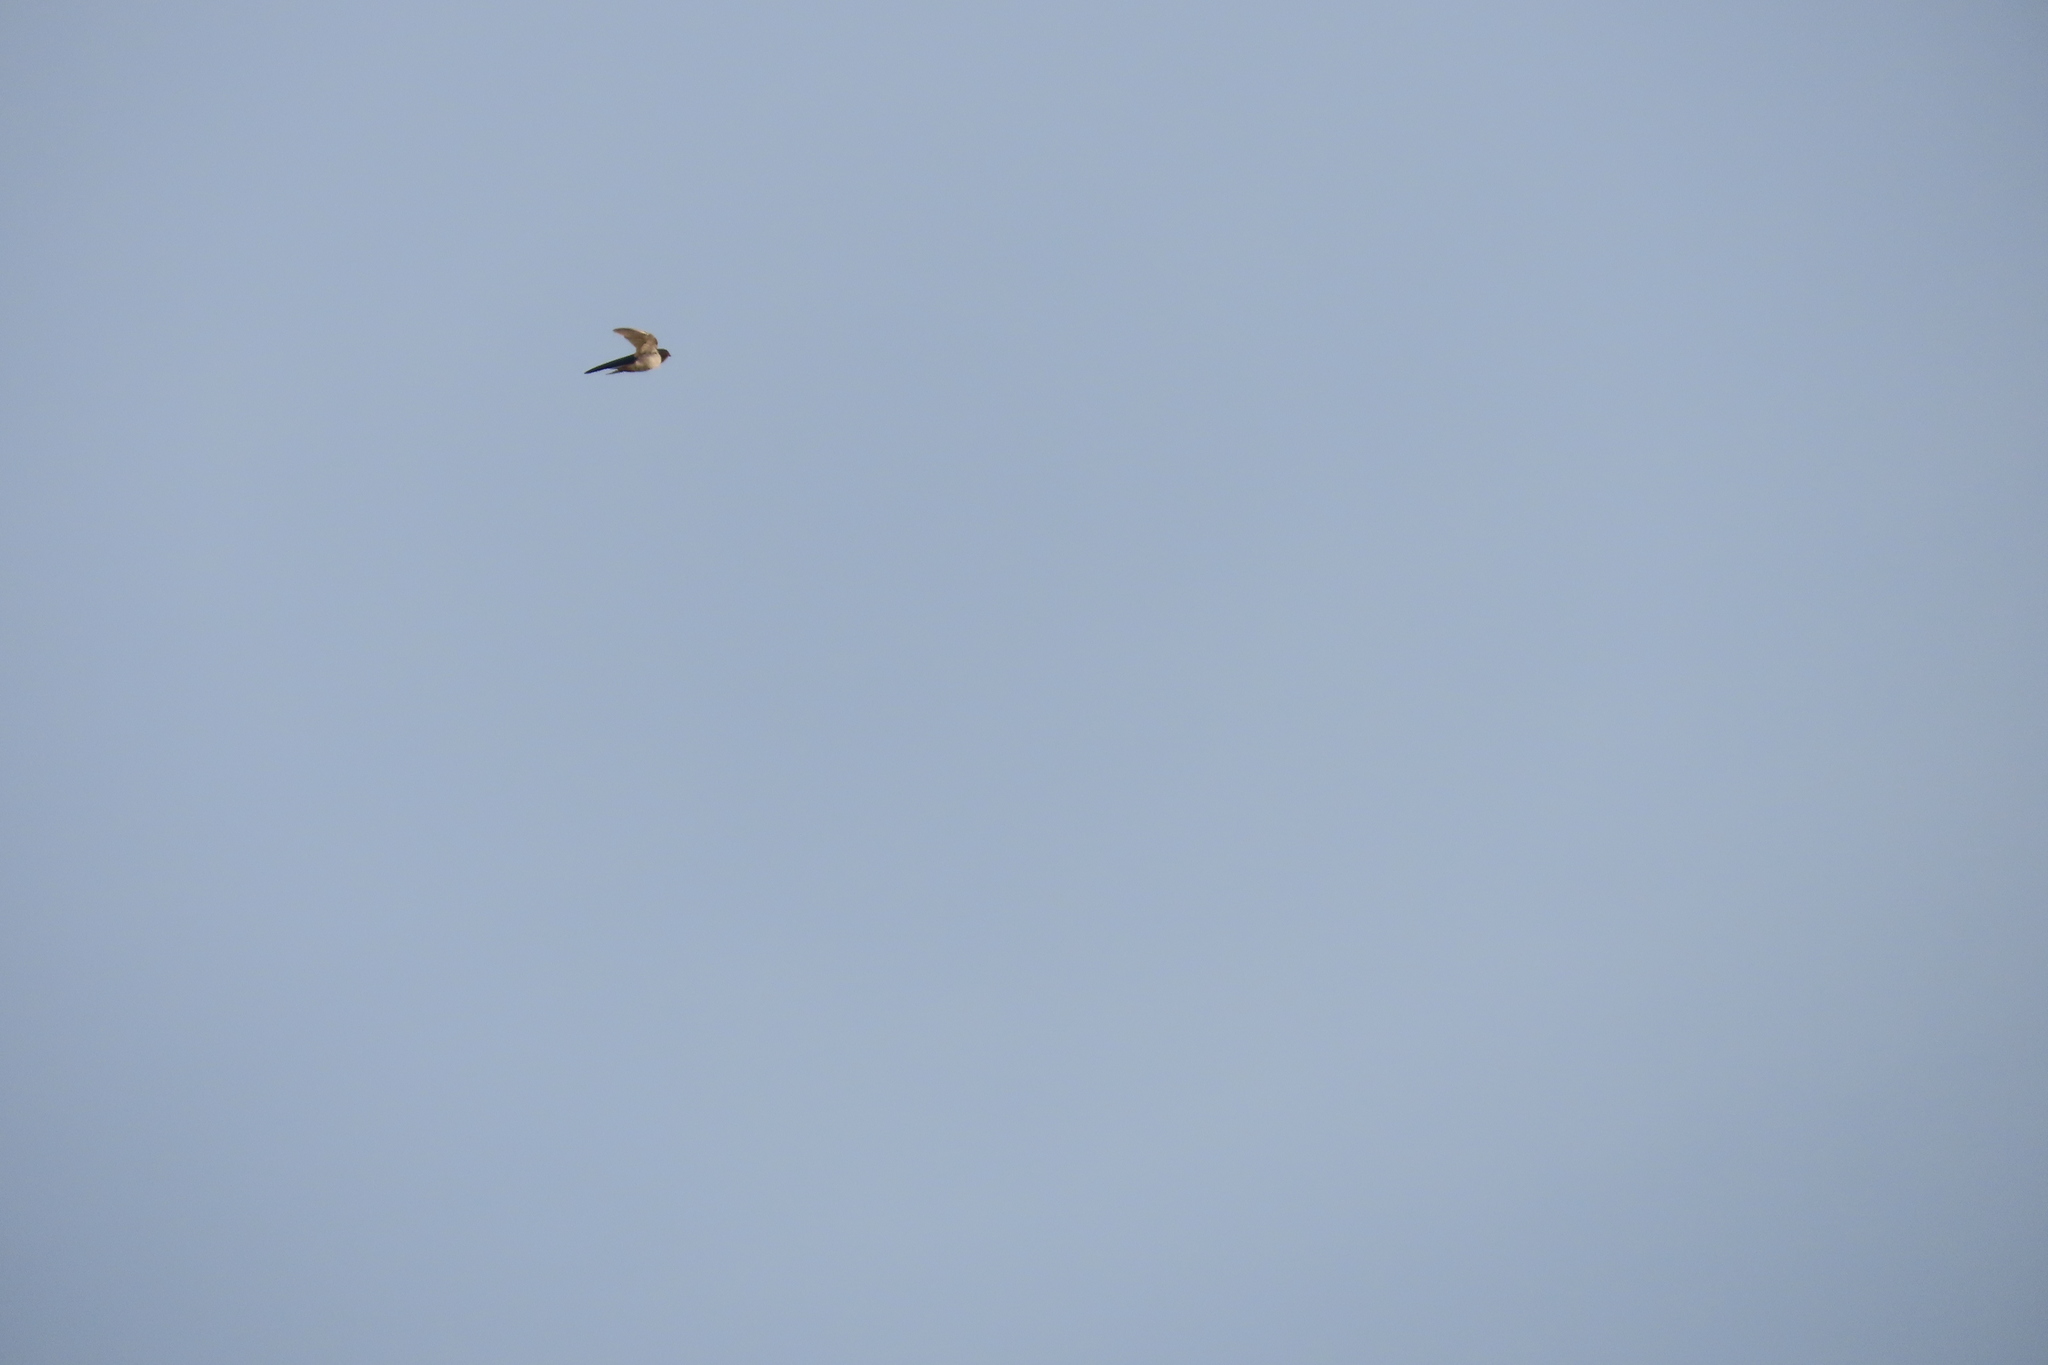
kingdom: Animalia
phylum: Chordata
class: Aves
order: Passeriformes
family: Hirundinidae
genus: Hirundo
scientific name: Hirundo rustica
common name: Barn swallow
